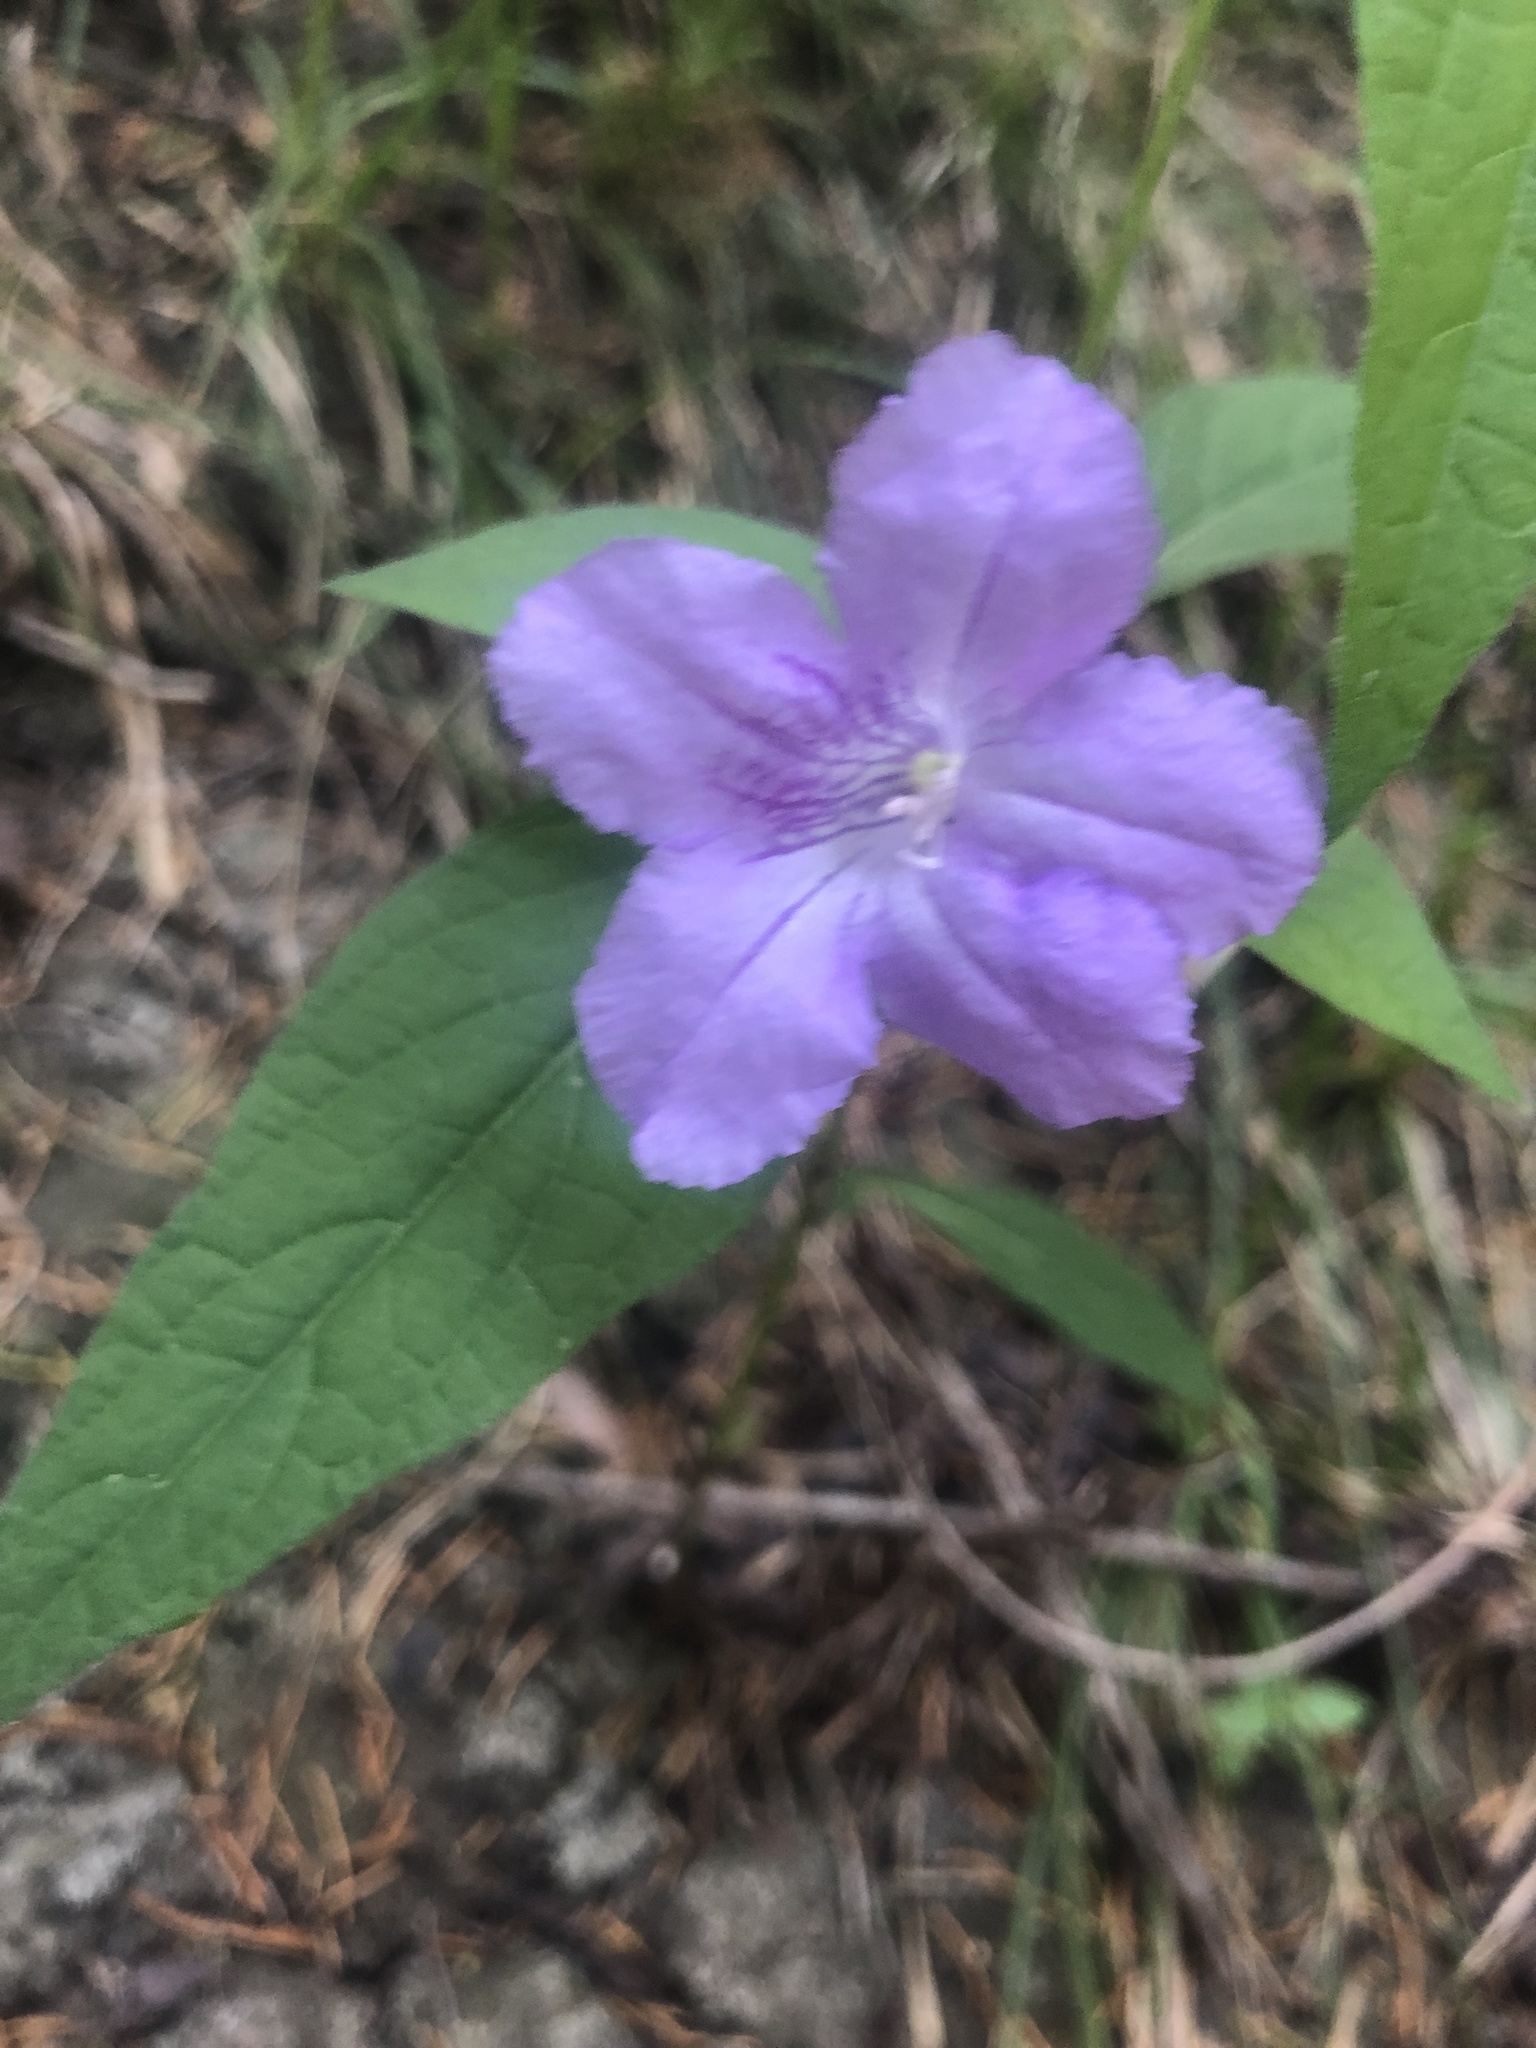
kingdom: Plantae
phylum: Tracheophyta
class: Magnoliopsida
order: Lamiales
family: Acanthaceae
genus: Ruellia
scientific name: Ruellia strepens
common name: Limestone wild petunia
